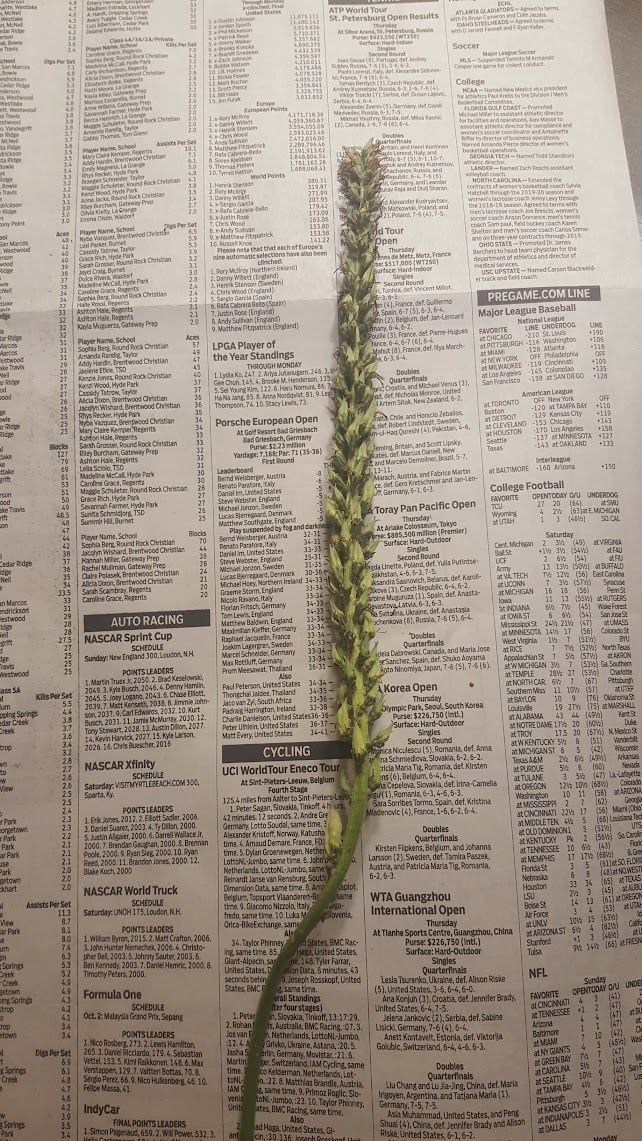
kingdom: Plantae
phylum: Tracheophyta
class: Liliopsida
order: Liliales
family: Melanthiaceae
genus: Schoenocaulon
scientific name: Schoenocaulon texanum
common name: Texas feather-shank
